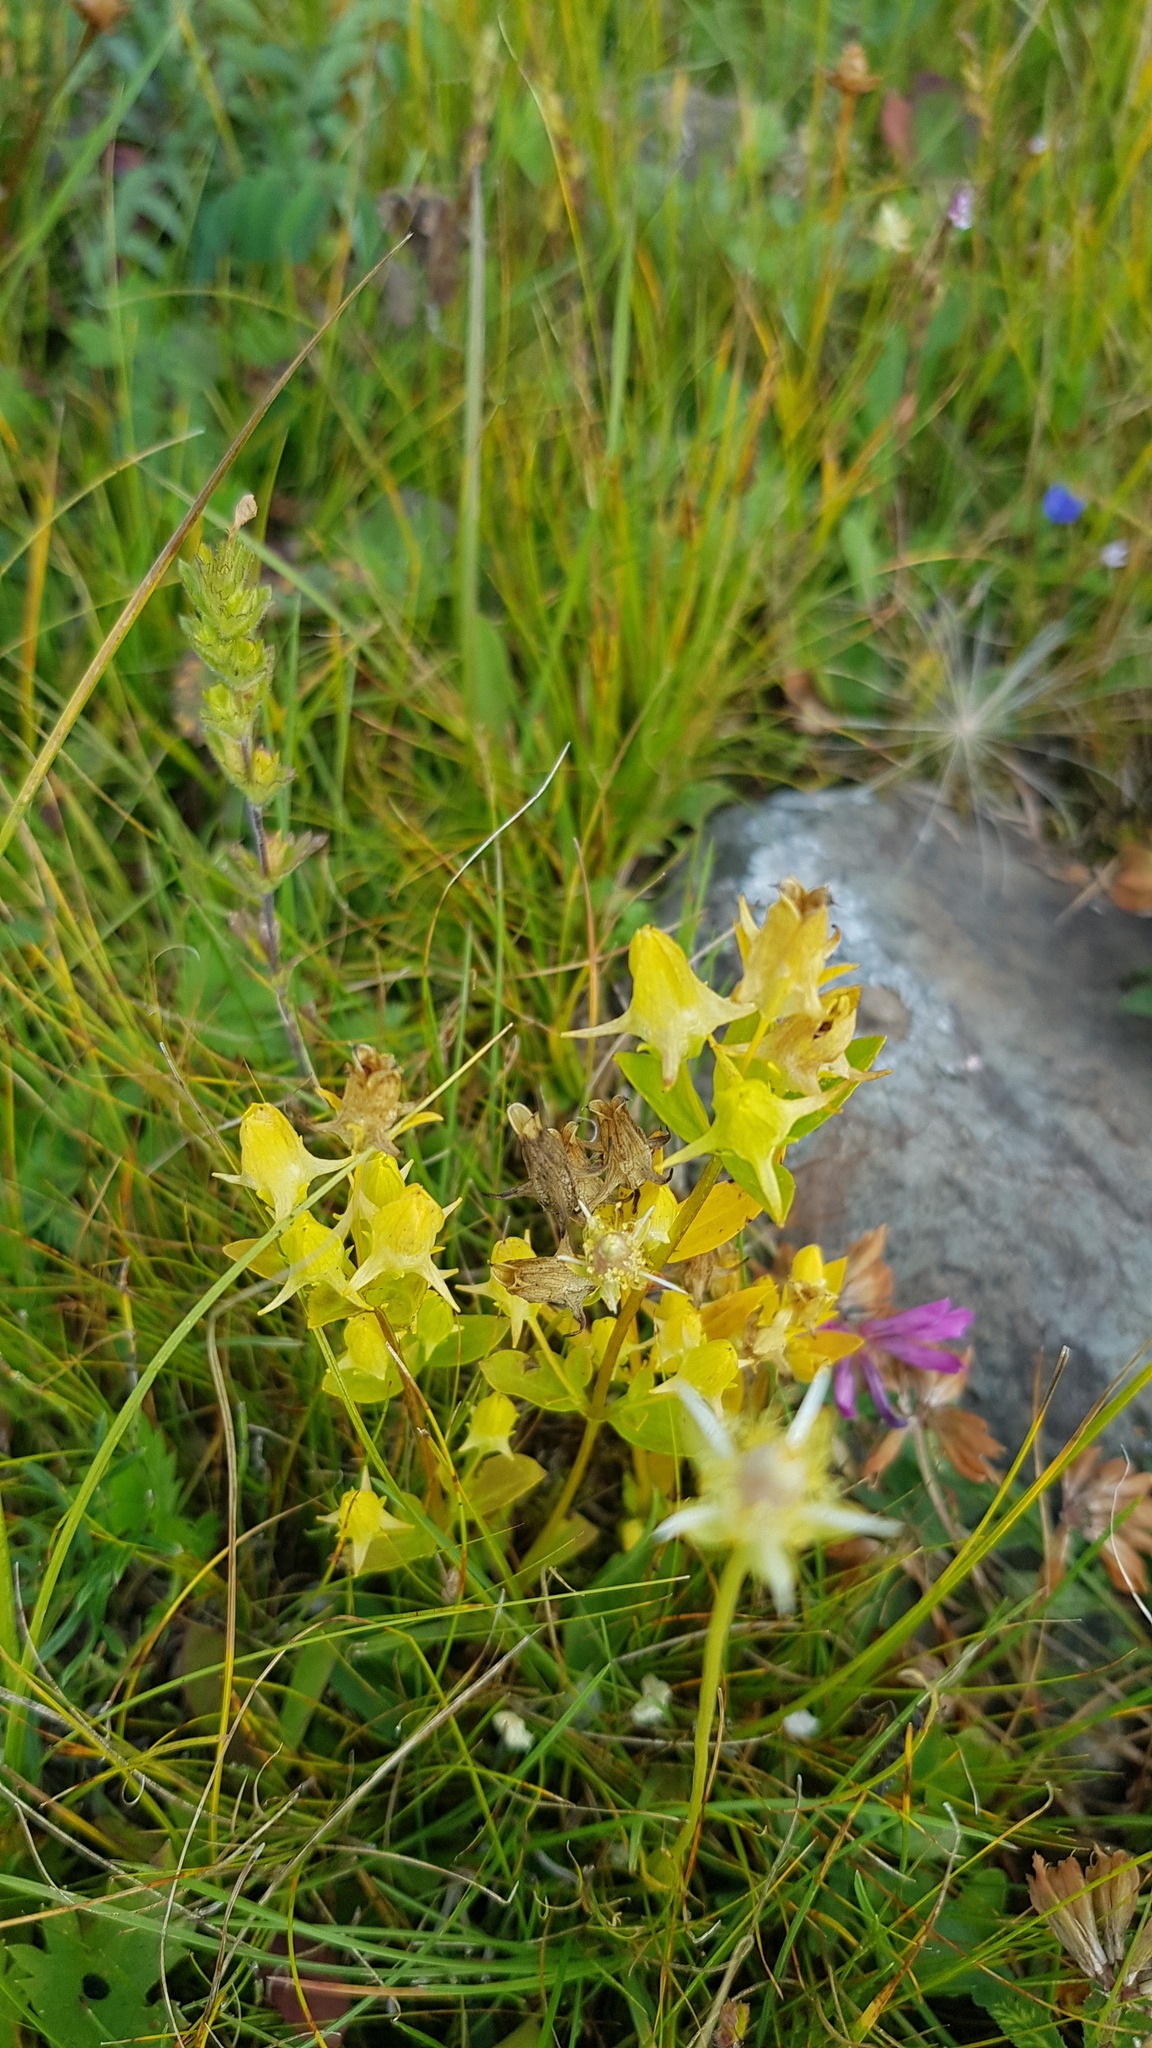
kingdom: Plantae
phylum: Tracheophyta
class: Magnoliopsida
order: Gentianales
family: Gentianaceae
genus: Halenia
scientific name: Halenia corniculata
